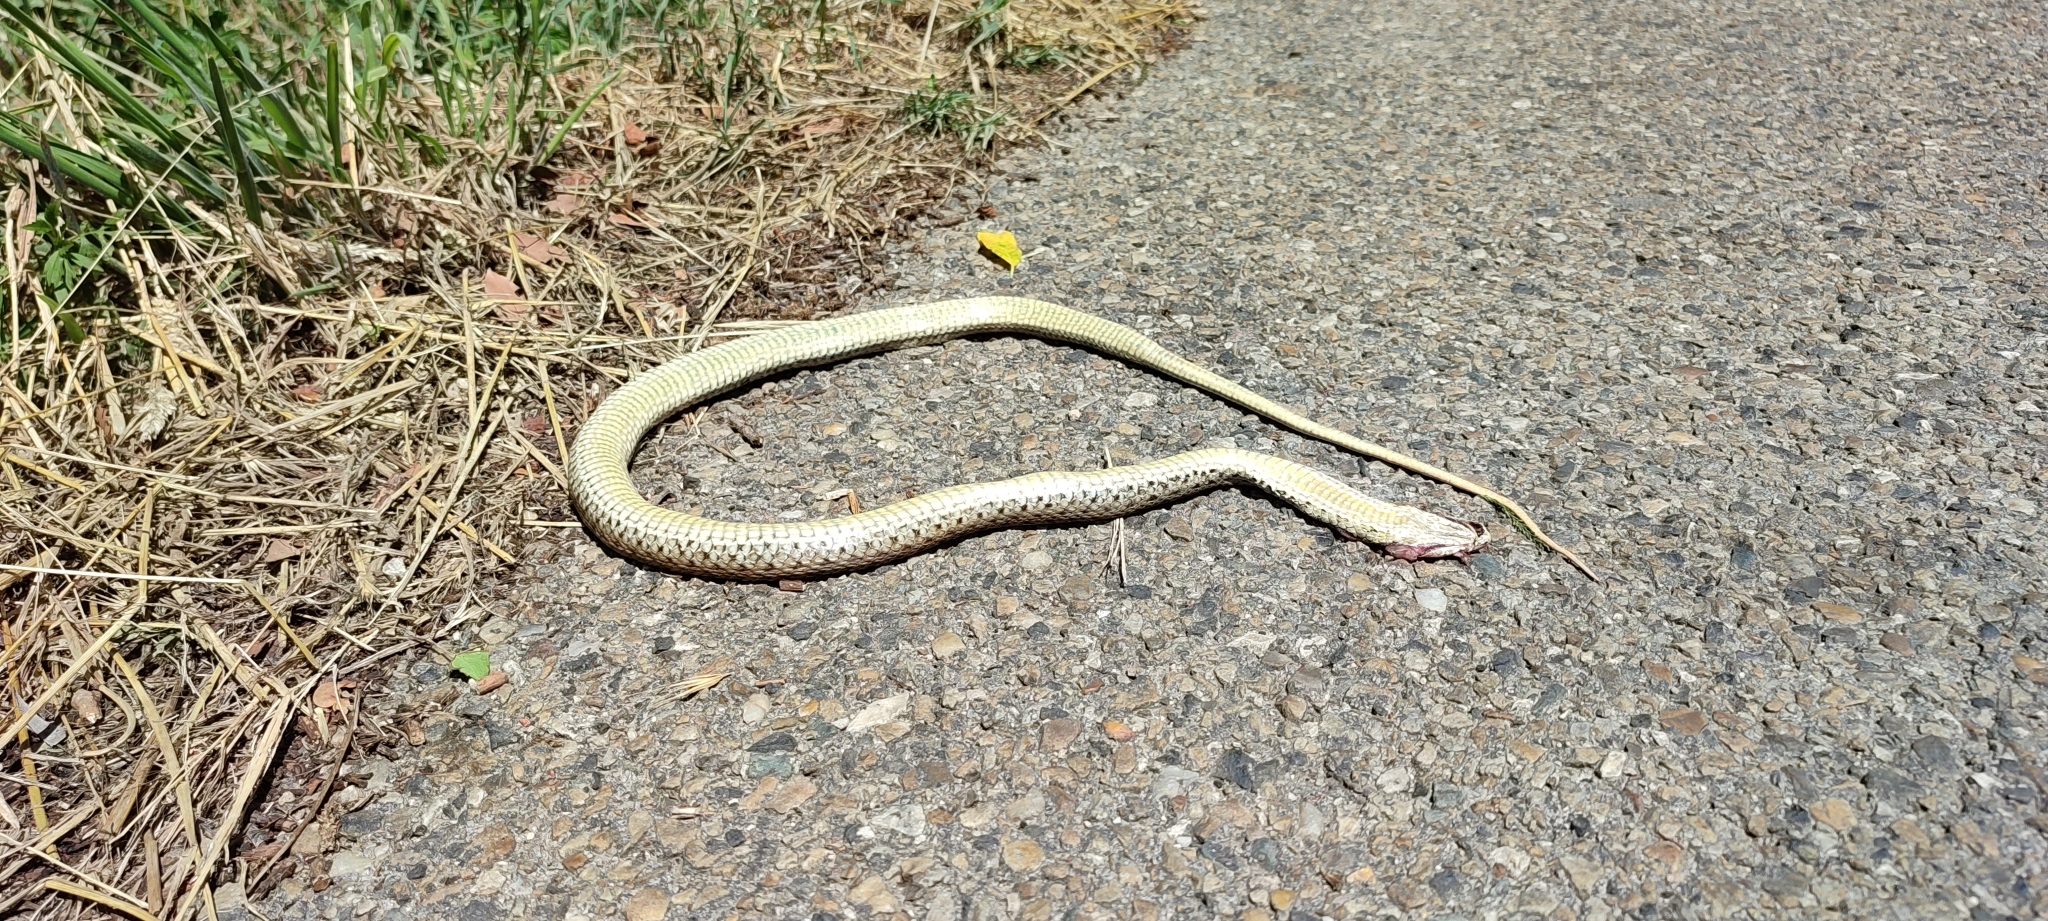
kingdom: Animalia
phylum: Chordata
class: Squamata
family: Psammophiidae
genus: Malpolon
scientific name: Malpolon monspessulanus
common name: Montpellier snake
